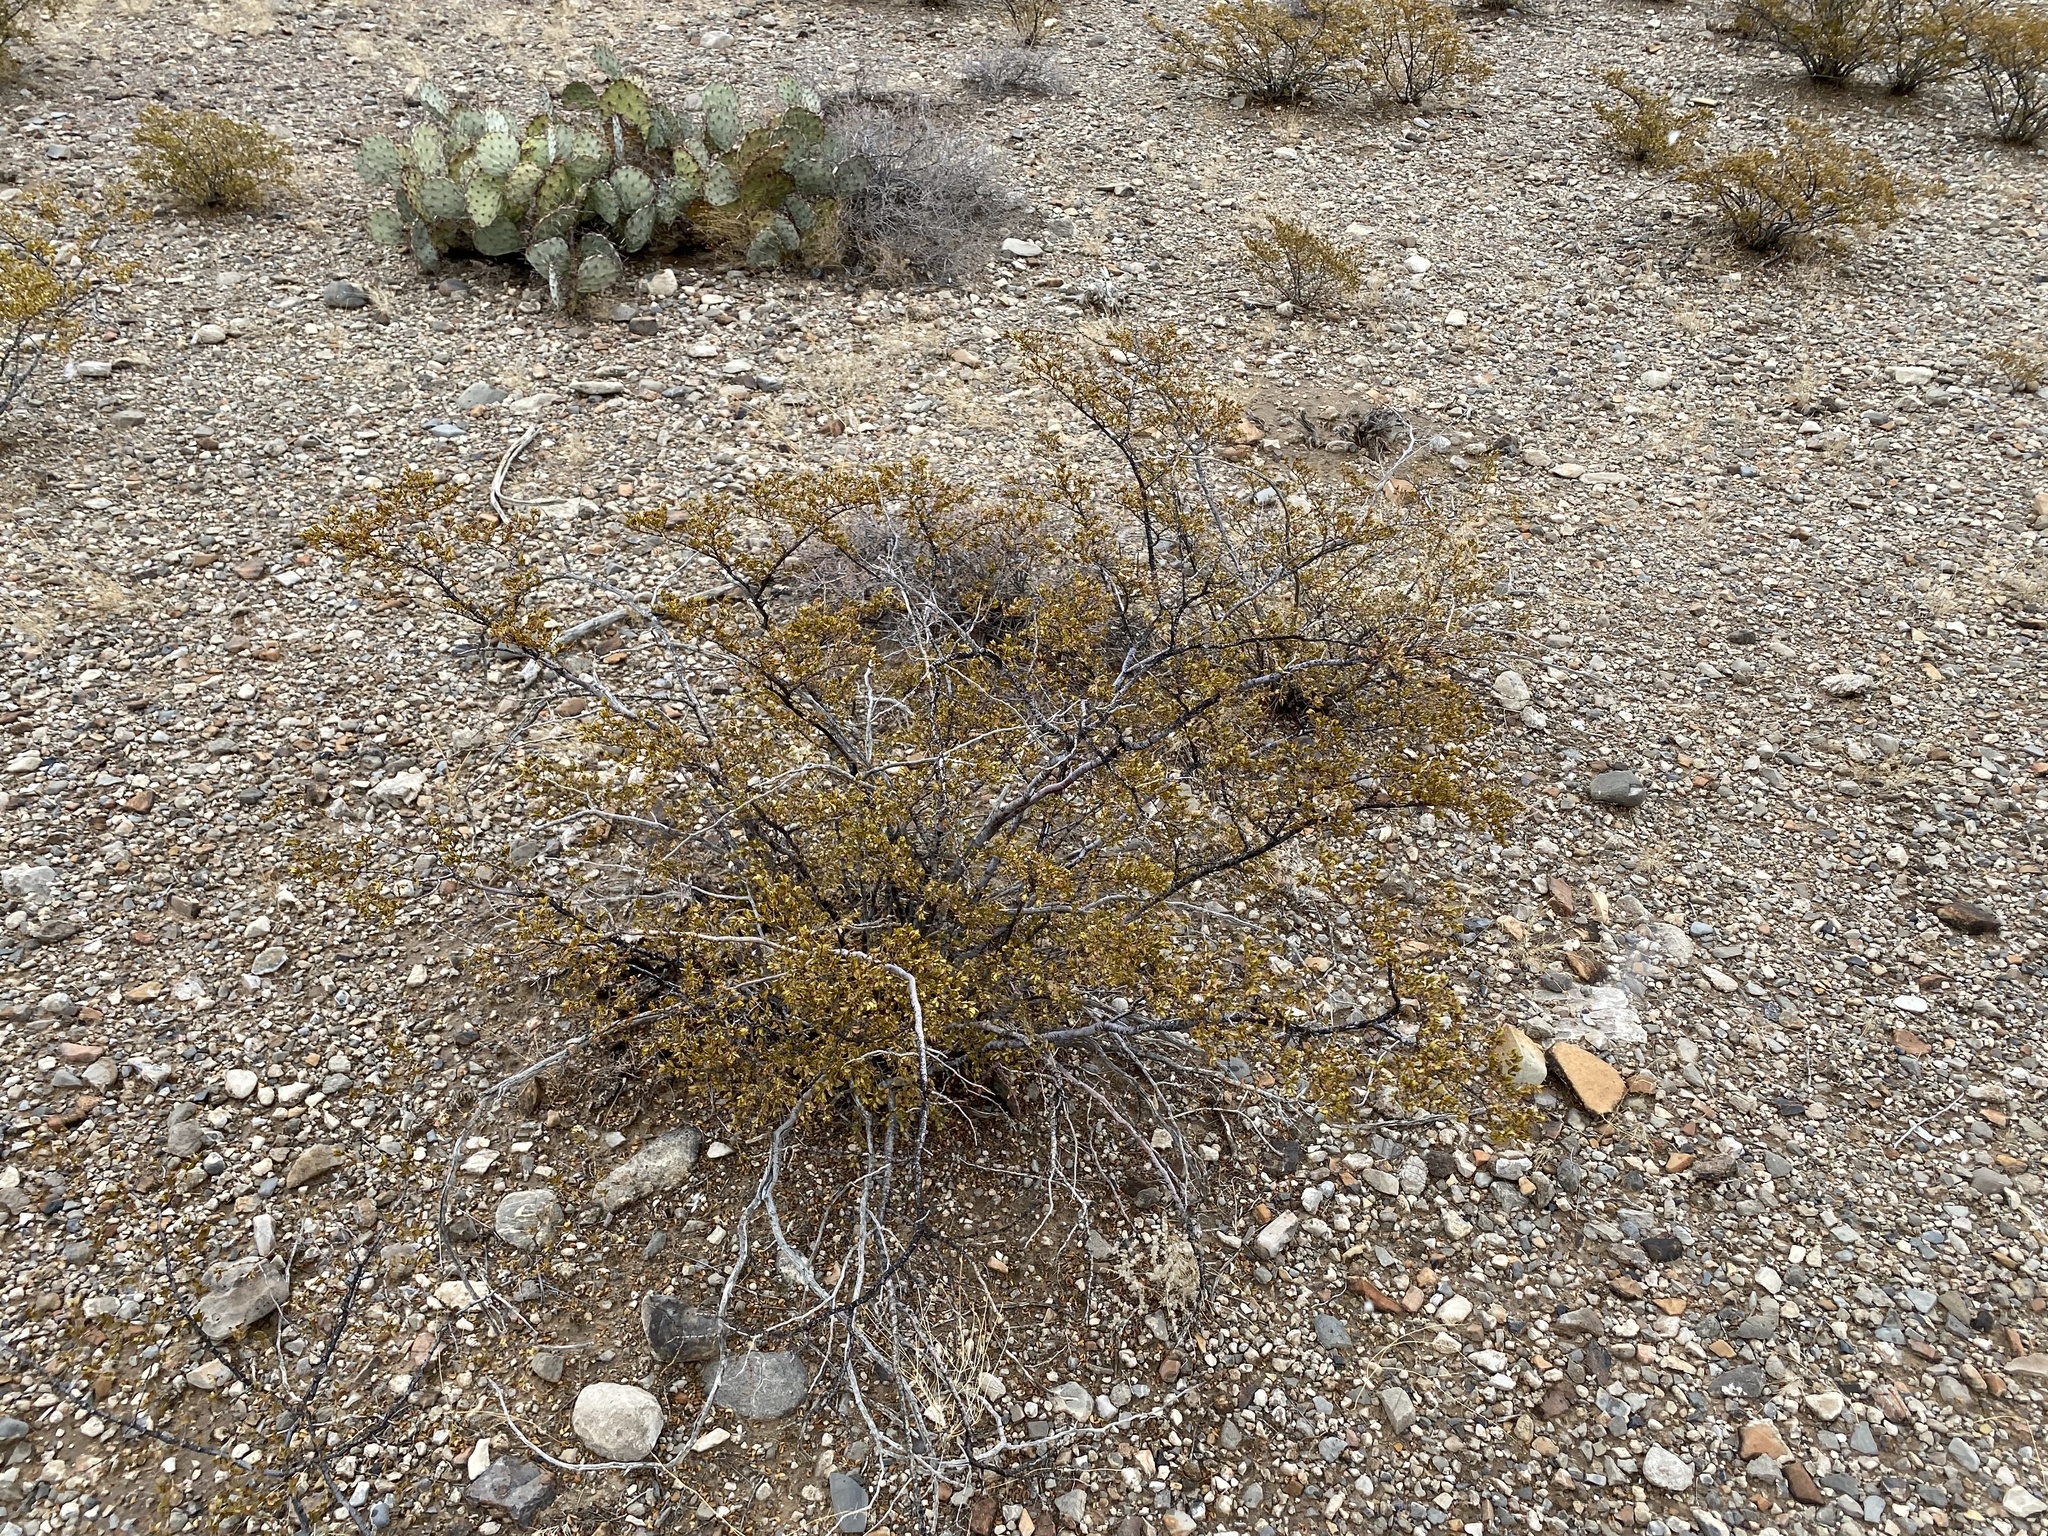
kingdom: Plantae
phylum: Tracheophyta
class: Magnoliopsida
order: Zygophyllales
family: Zygophyllaceae
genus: Larrea
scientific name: Larrea tridentata
